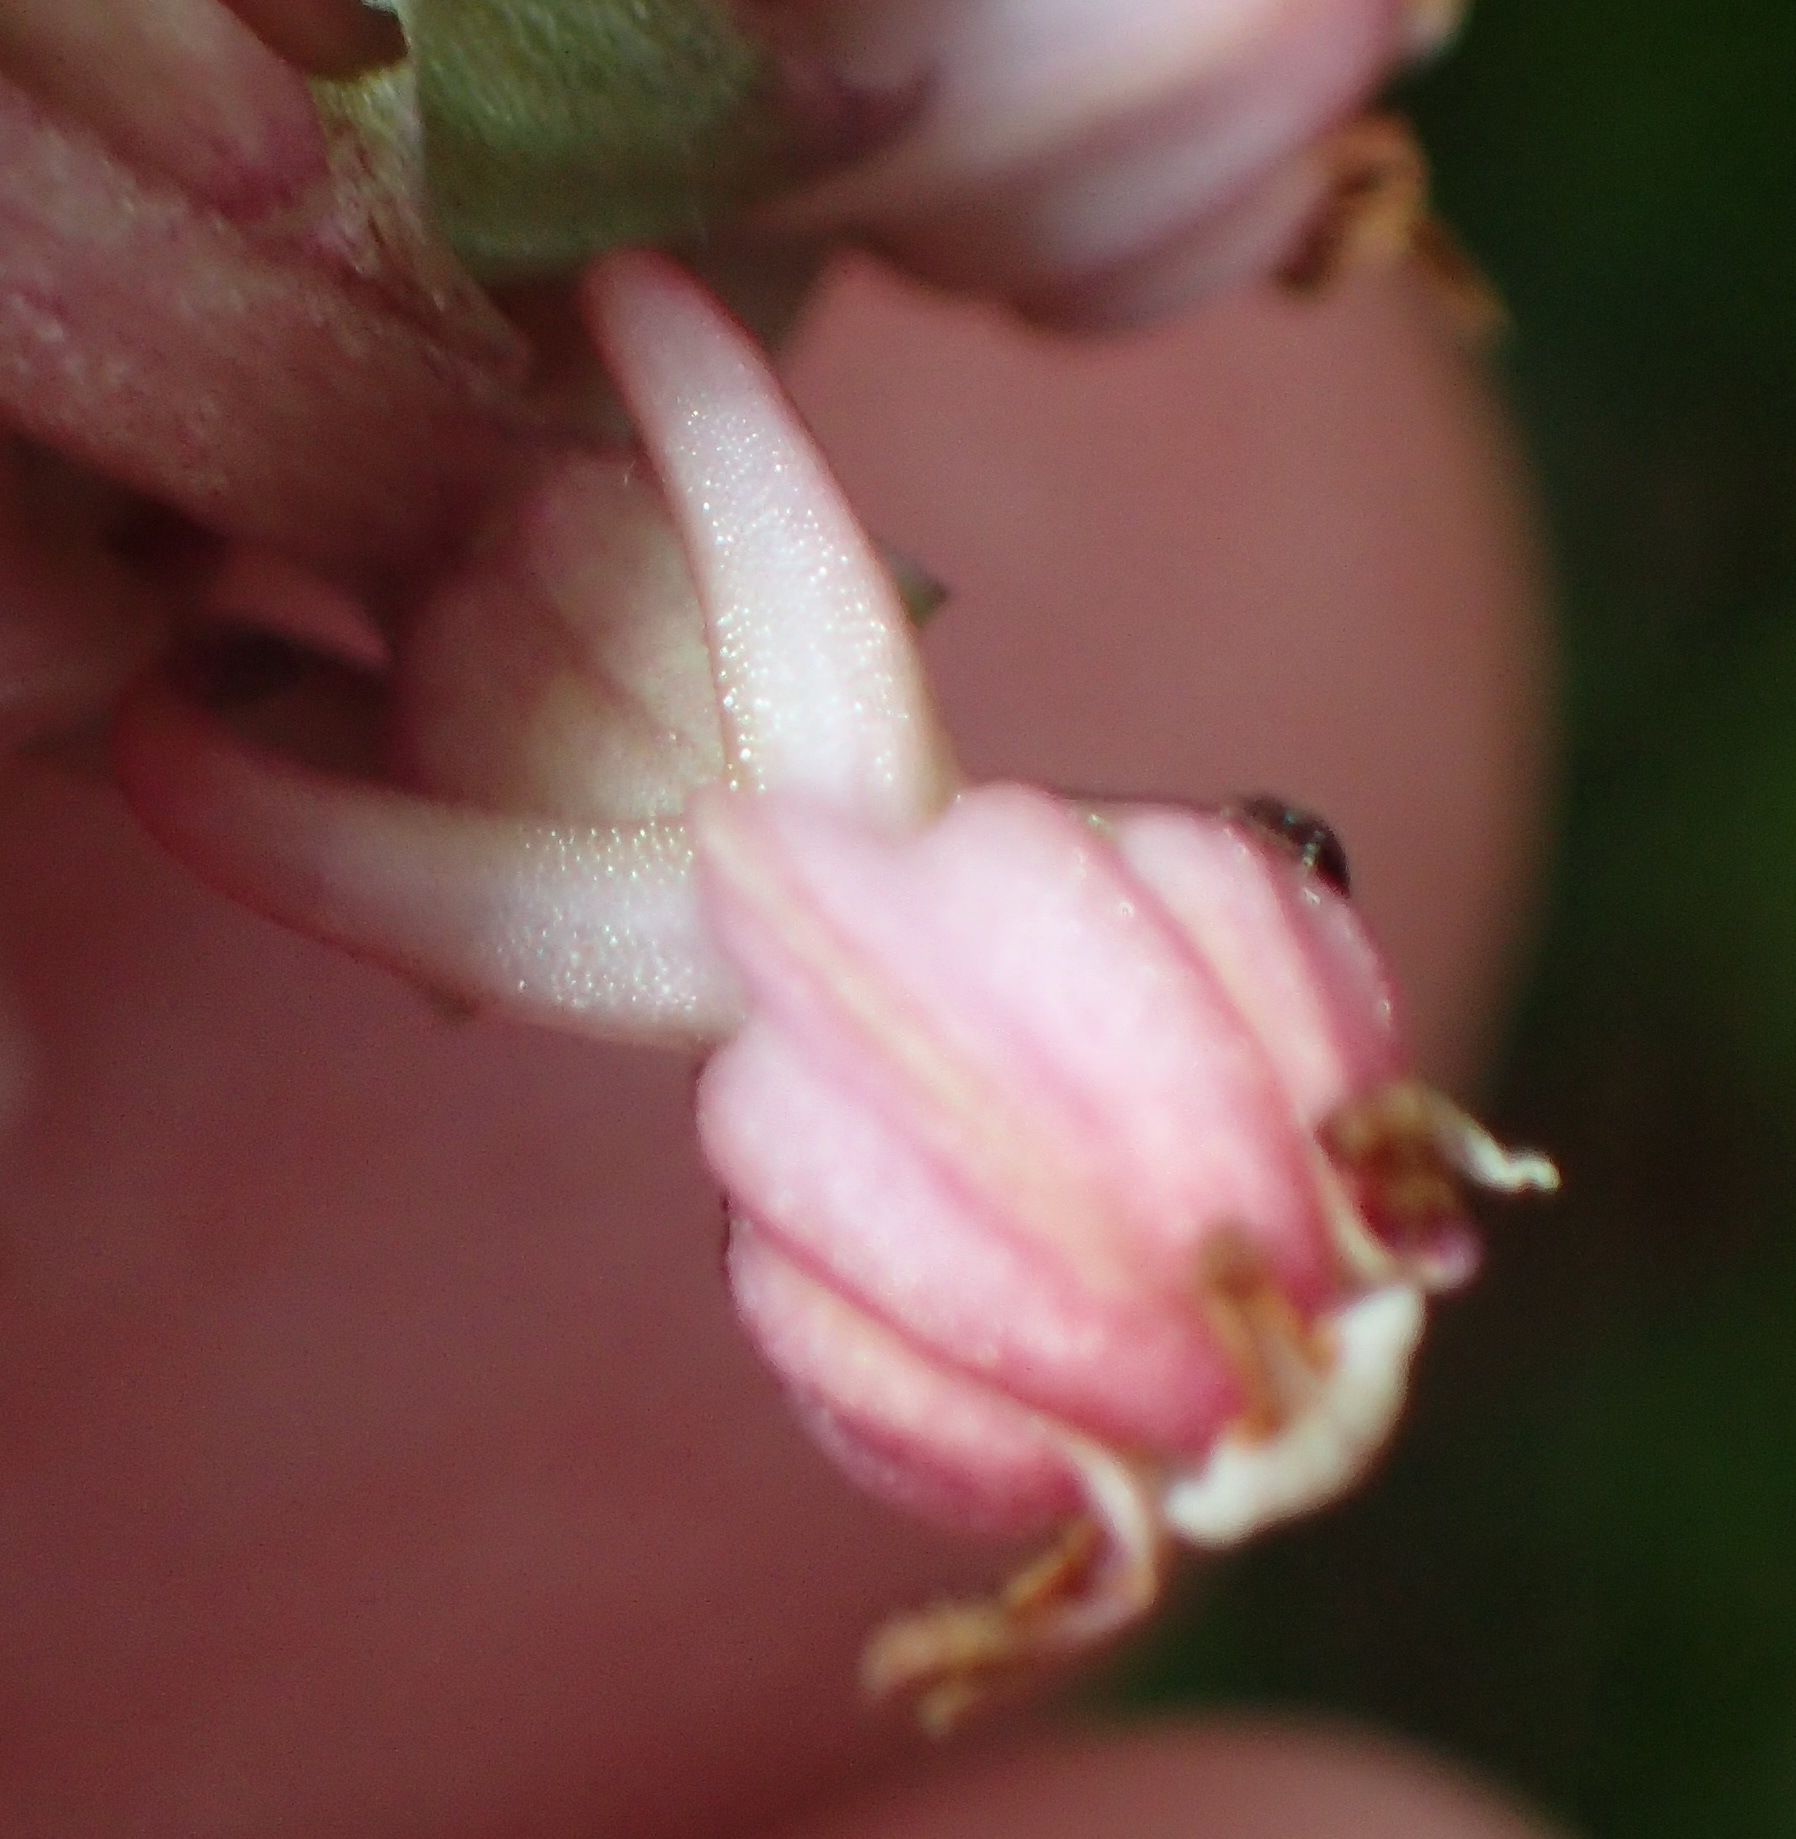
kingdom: Plantae
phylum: Tracheophyta
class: Liliopsida
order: Asparagales
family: Orchidaceae
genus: Satyrium
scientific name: Satyrium ligulatum
